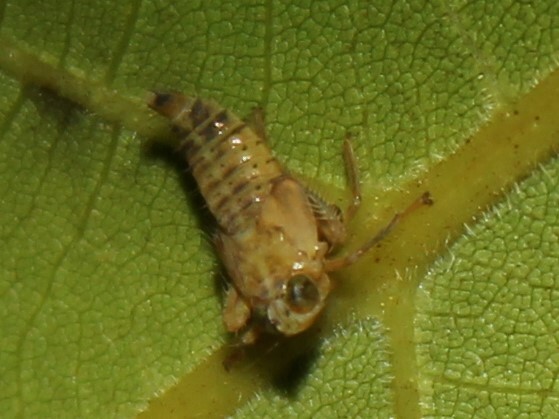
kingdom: Animalia
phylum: Arthropoda
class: Insecta
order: Hemiptera
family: Cicadellidae
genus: Jikradia
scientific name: Jikradia olitoria
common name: Coppery leafhopper
